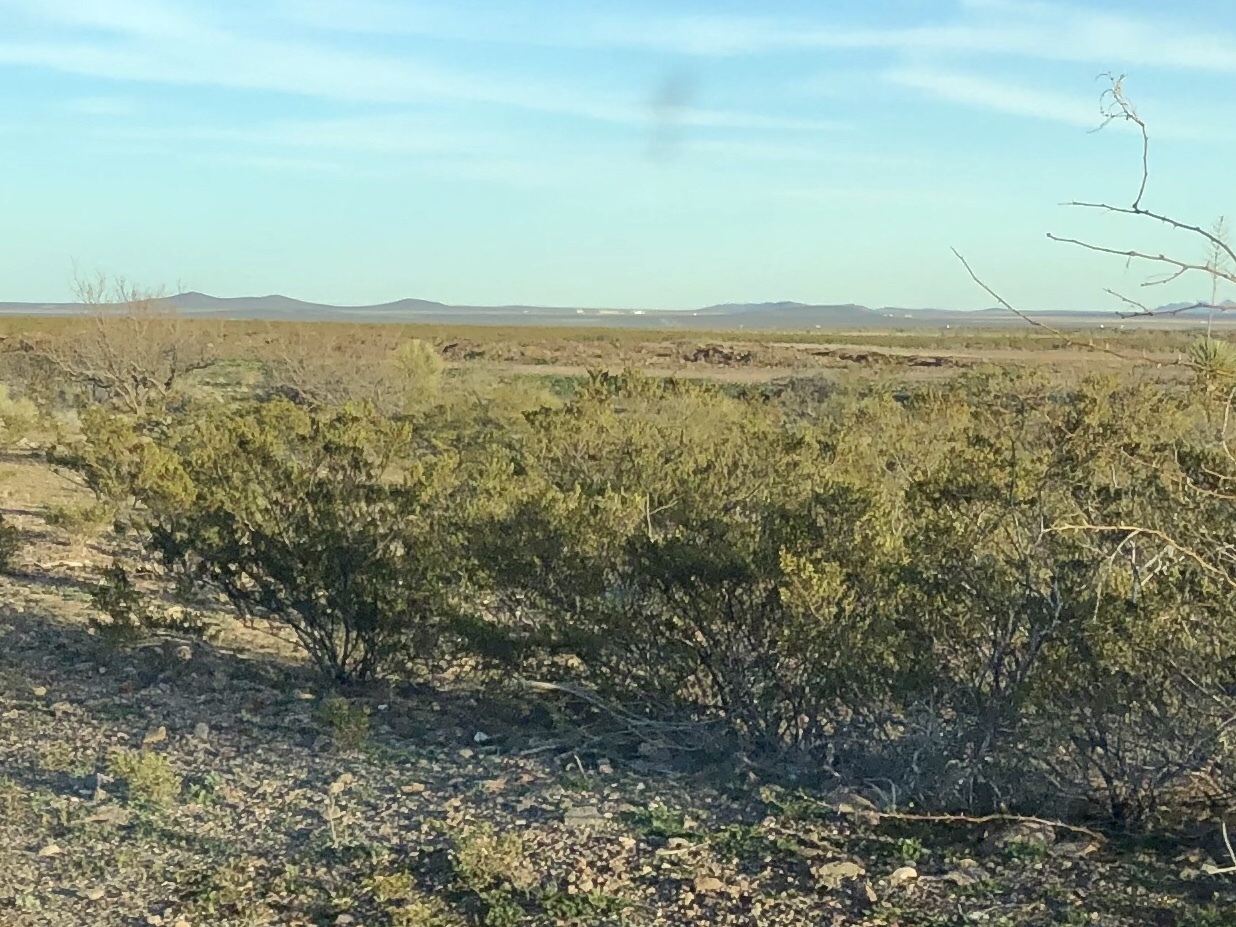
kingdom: Plantae
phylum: Tracheophyta
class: Magnoliopsida
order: Zygophyllales
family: Zygophyllaceae
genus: Larrea
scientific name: Larrea tridentata
